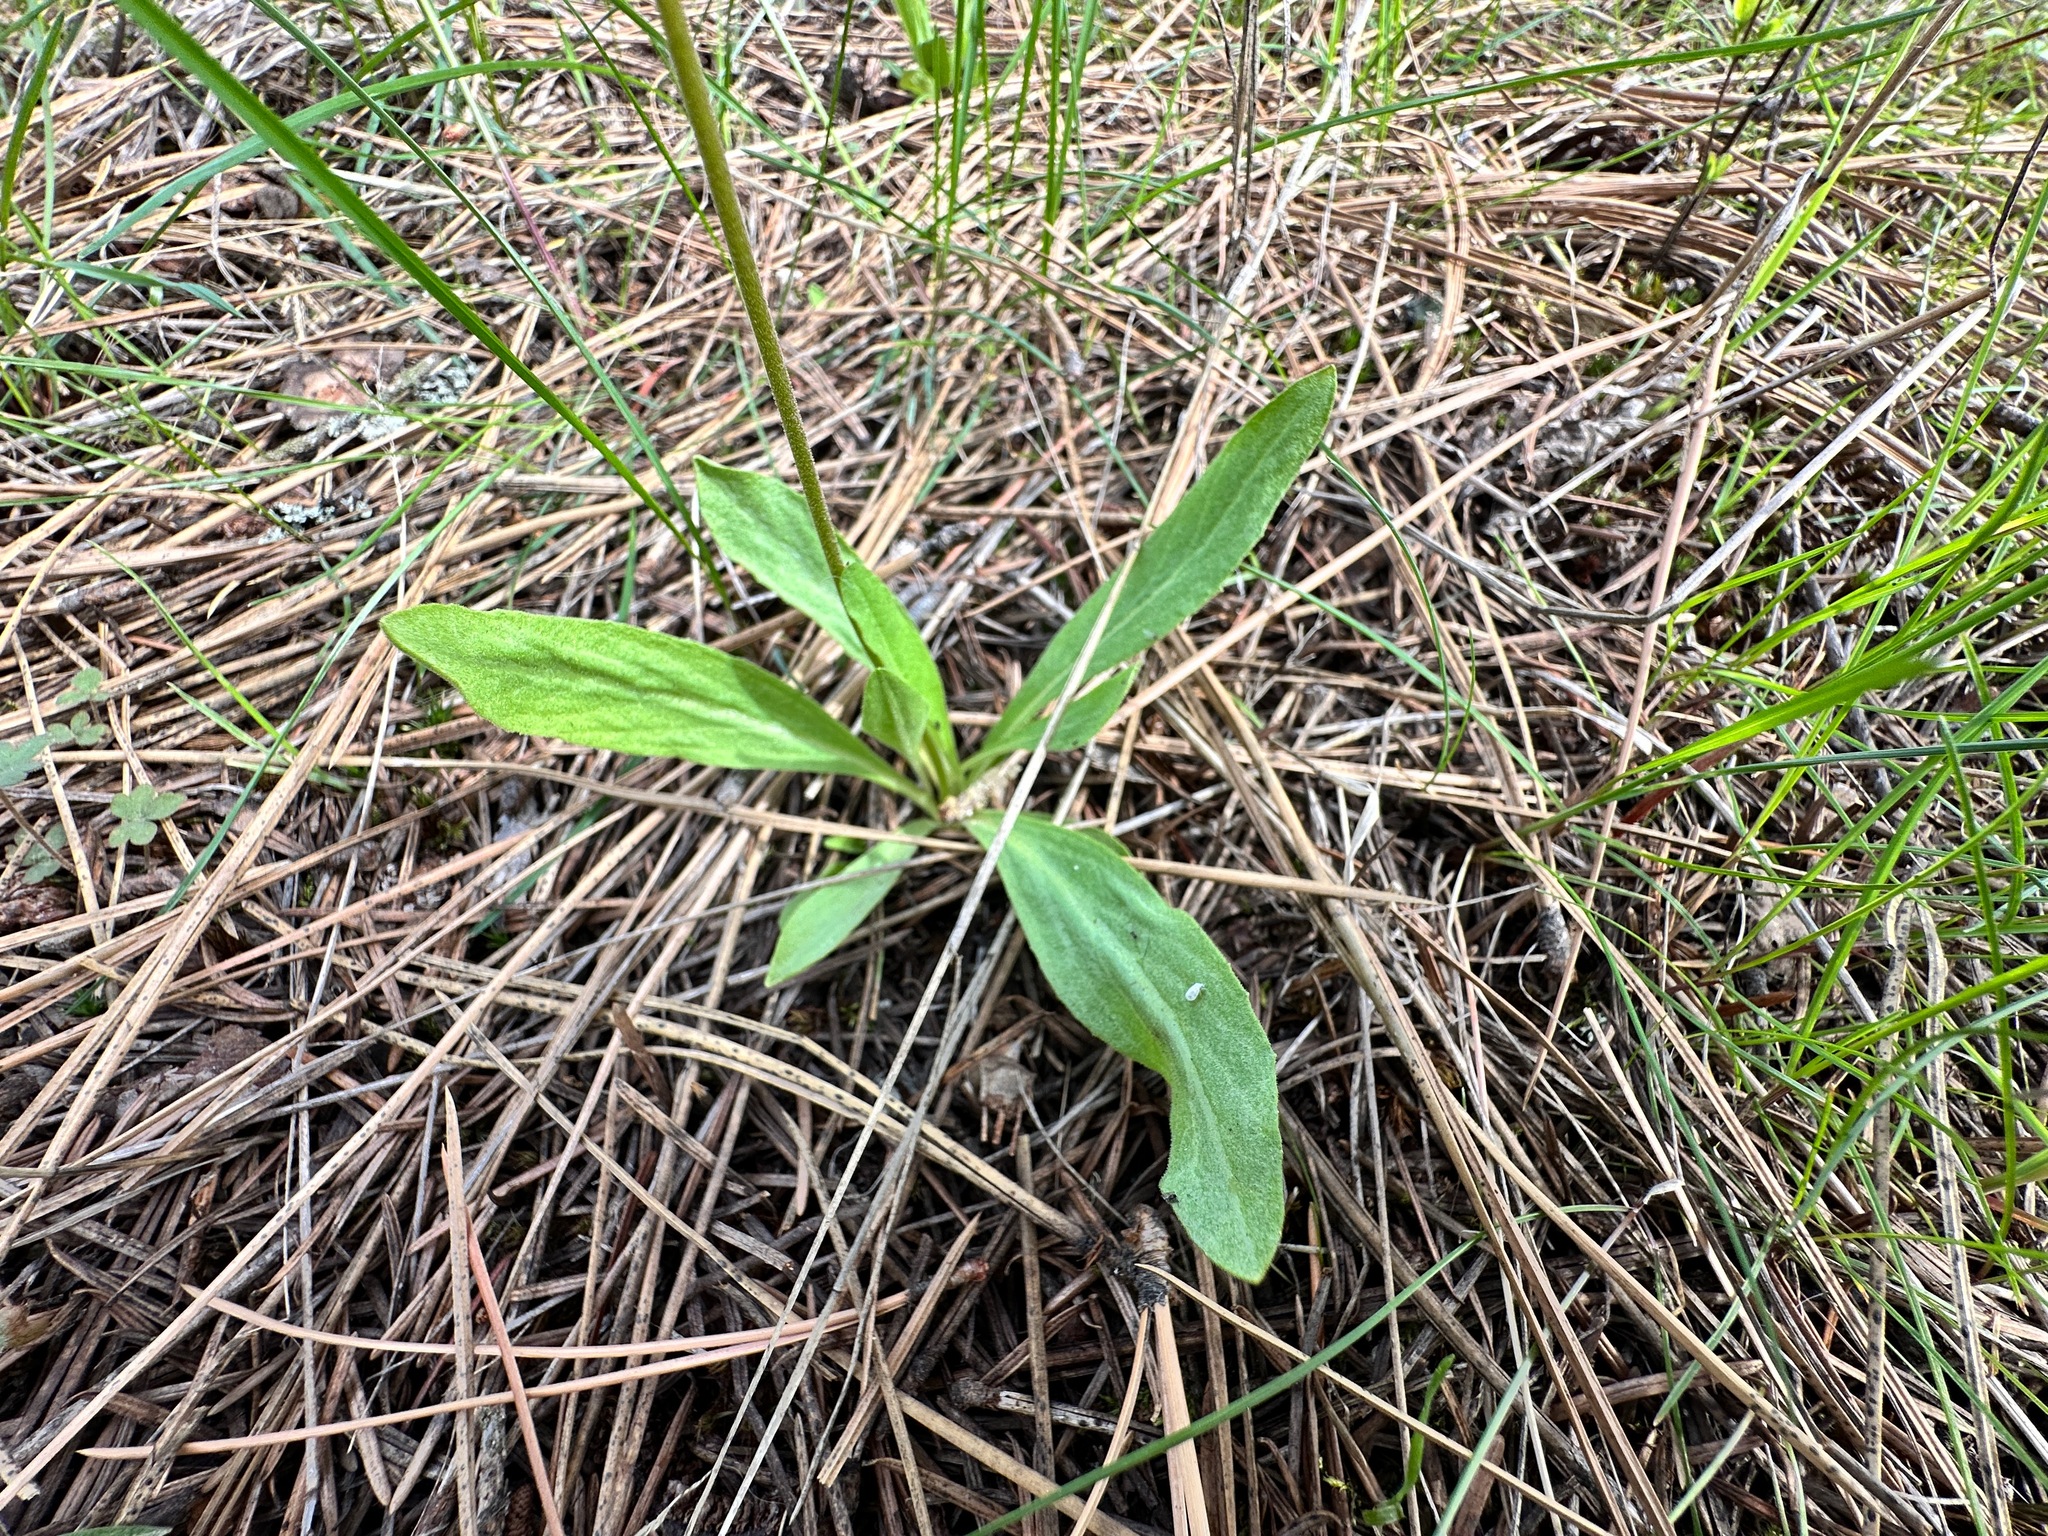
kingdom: Plantae
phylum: Tracheophyta
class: Magnoliopsida
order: Ericales
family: Primulaceae
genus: Dodecatheon
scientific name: Dodecatheon pulchellum
